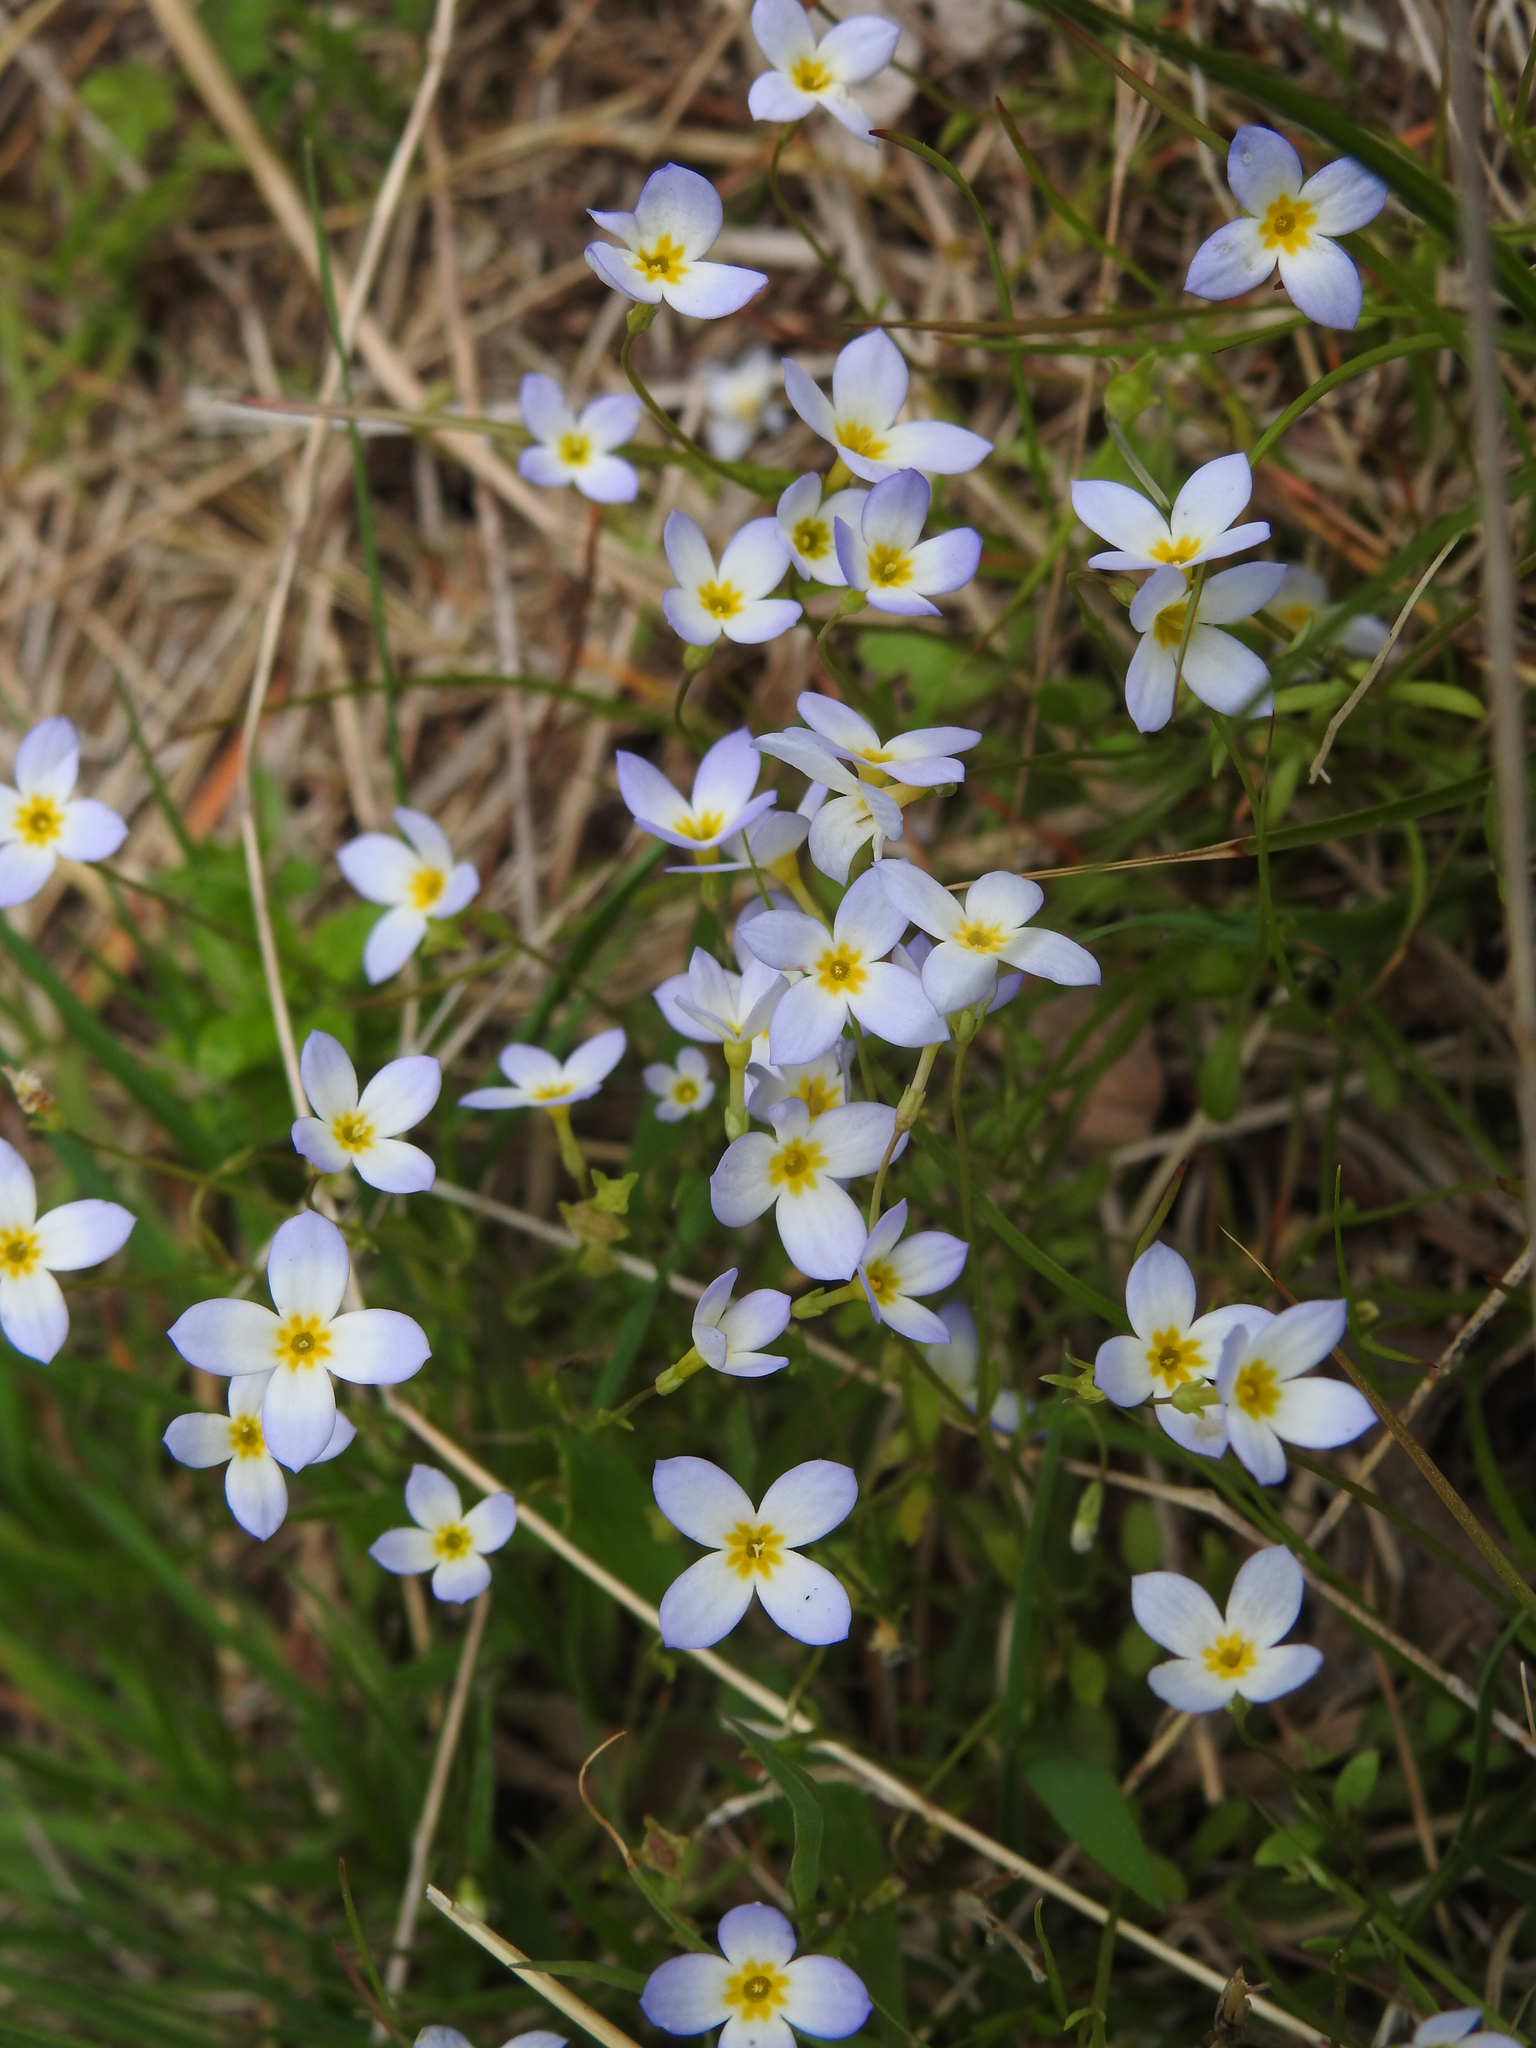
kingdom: Plantae
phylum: Tracheophyta
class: Magnoliopsida
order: Gentianales
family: Rubiaceae
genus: Houstonia
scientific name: Houstonia caerulea
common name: Bluets
